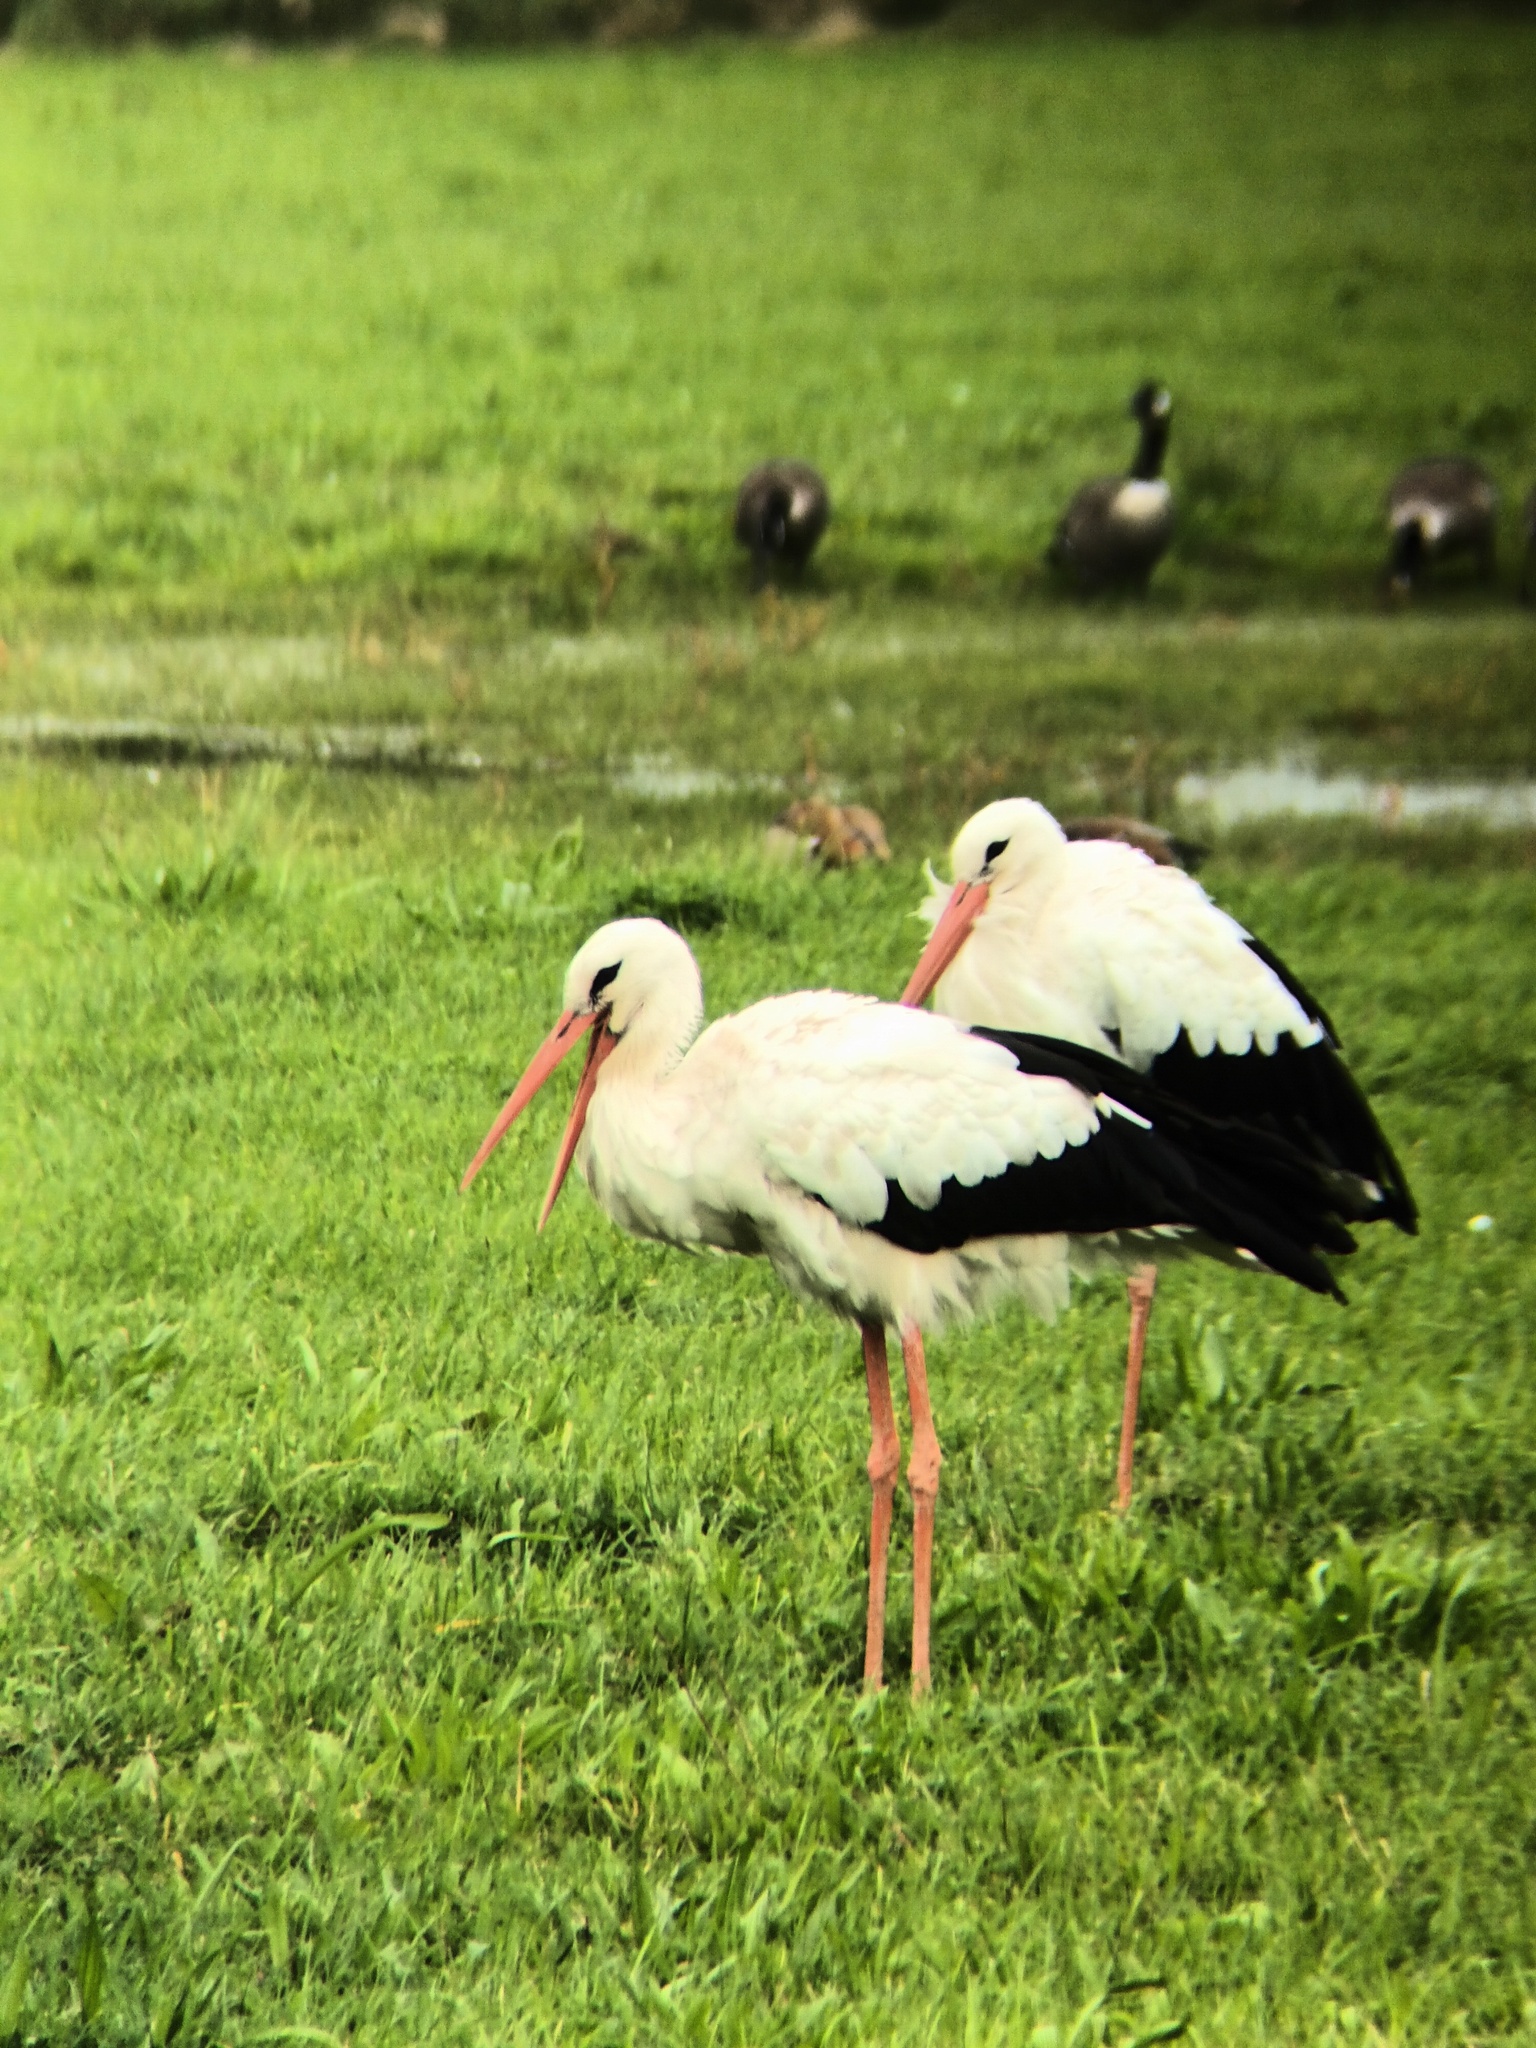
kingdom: Animalia
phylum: Chordata
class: Aves
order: Ciconiiformes
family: Ciconiidae
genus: Ciconia
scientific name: Ciconia ciconia
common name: White stork
